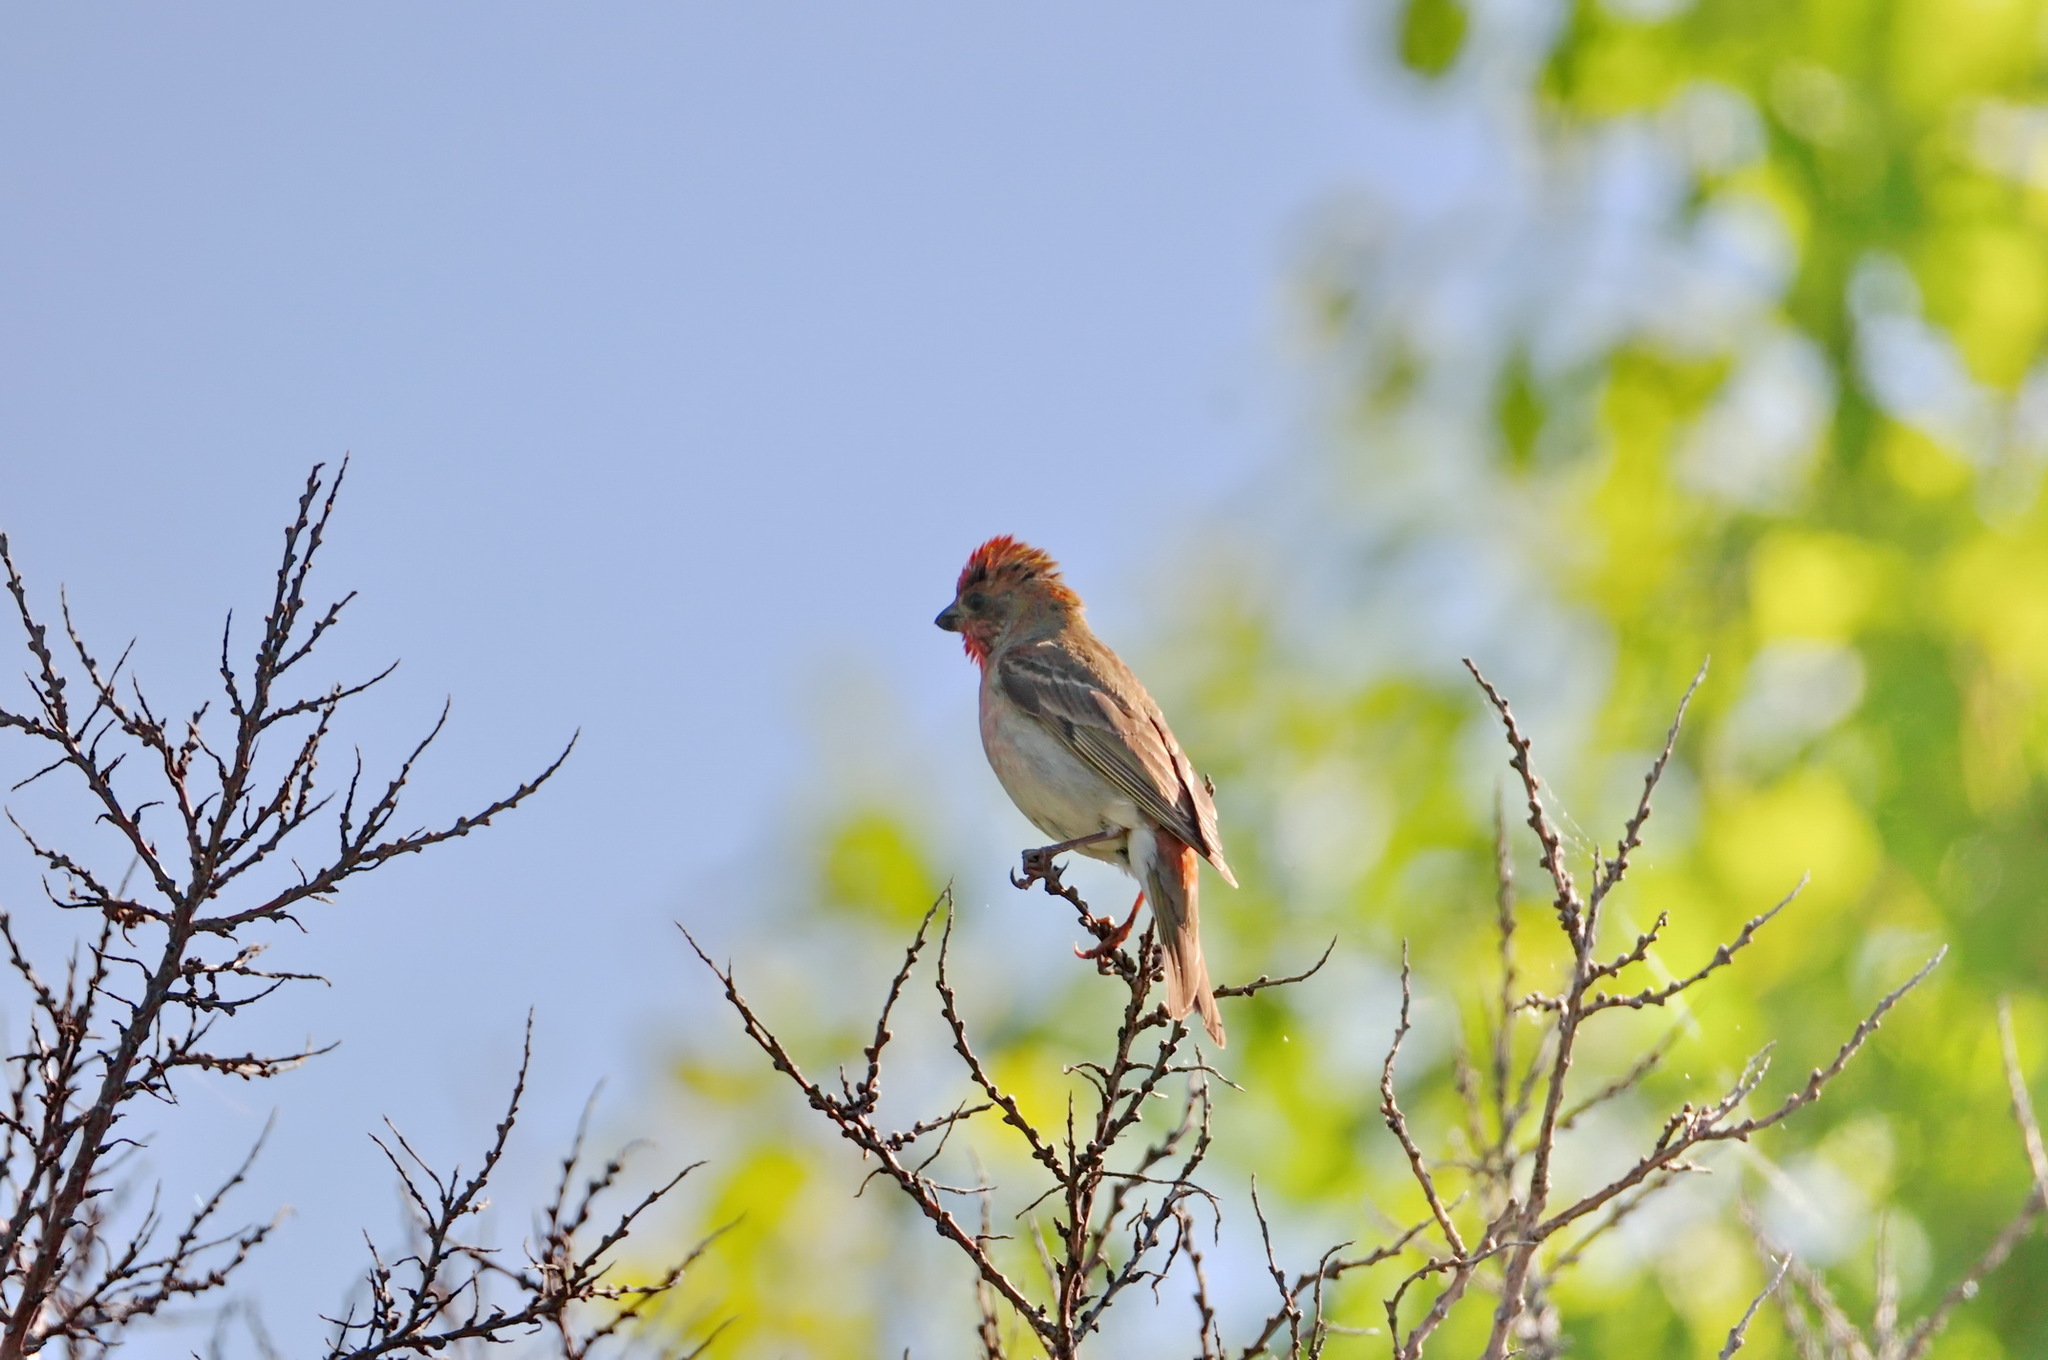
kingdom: Animalia
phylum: Chordata
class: Aves
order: Passeriformes
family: Fringillidae
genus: Carpodacus
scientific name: Carpodacus erythrinus
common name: Common rosefinch
